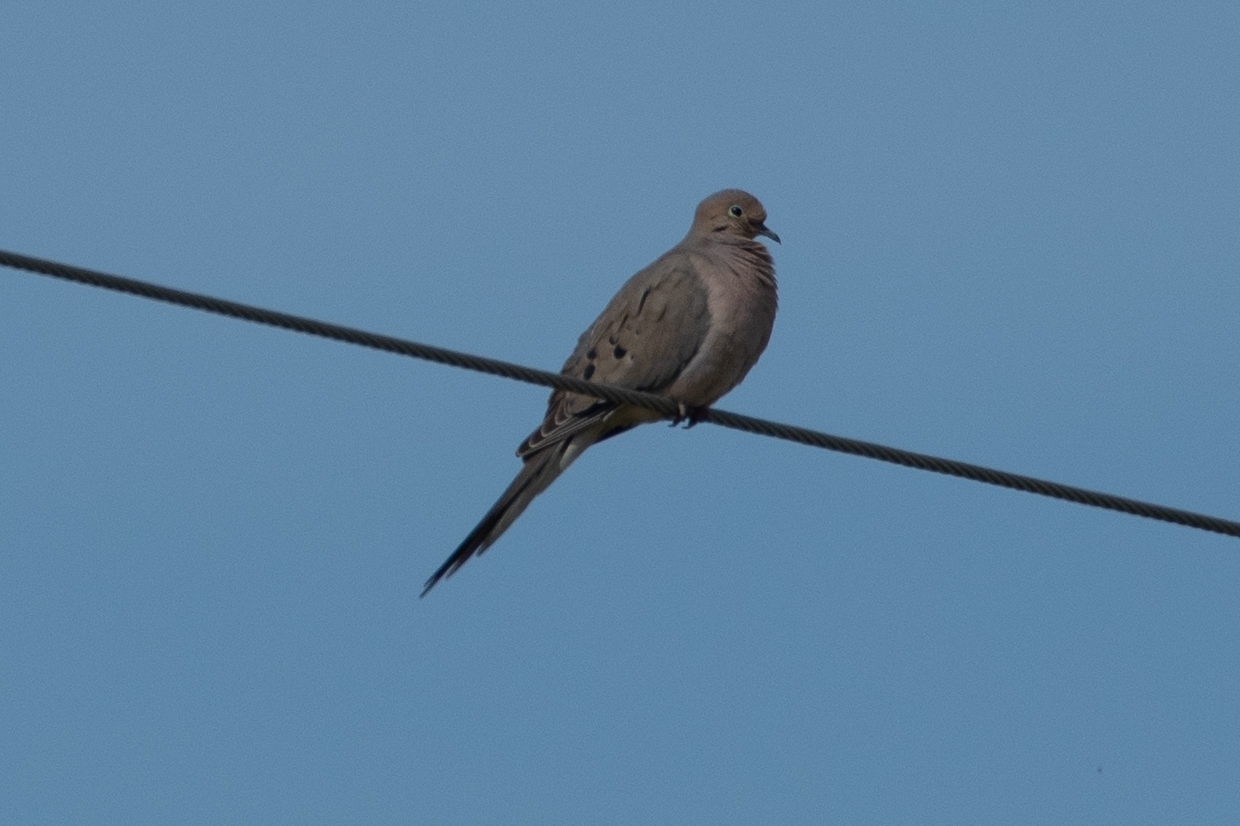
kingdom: Animalia
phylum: Chordata
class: Aves
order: Columbiformes
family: Columbidae
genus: Zenaida
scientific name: Zenaida macroura
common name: Mourning dove
